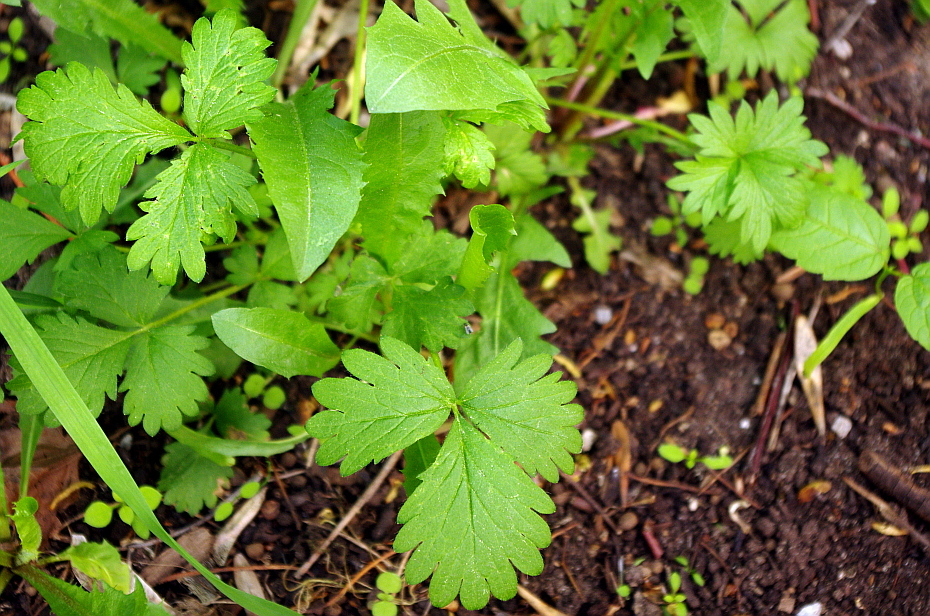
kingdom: Plantae
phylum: Tracheophyta
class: Magnoliopsida
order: Rosales
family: Rosaceae
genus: Potentilla
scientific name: Potentilla intermedia
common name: Downy cinquefoil
